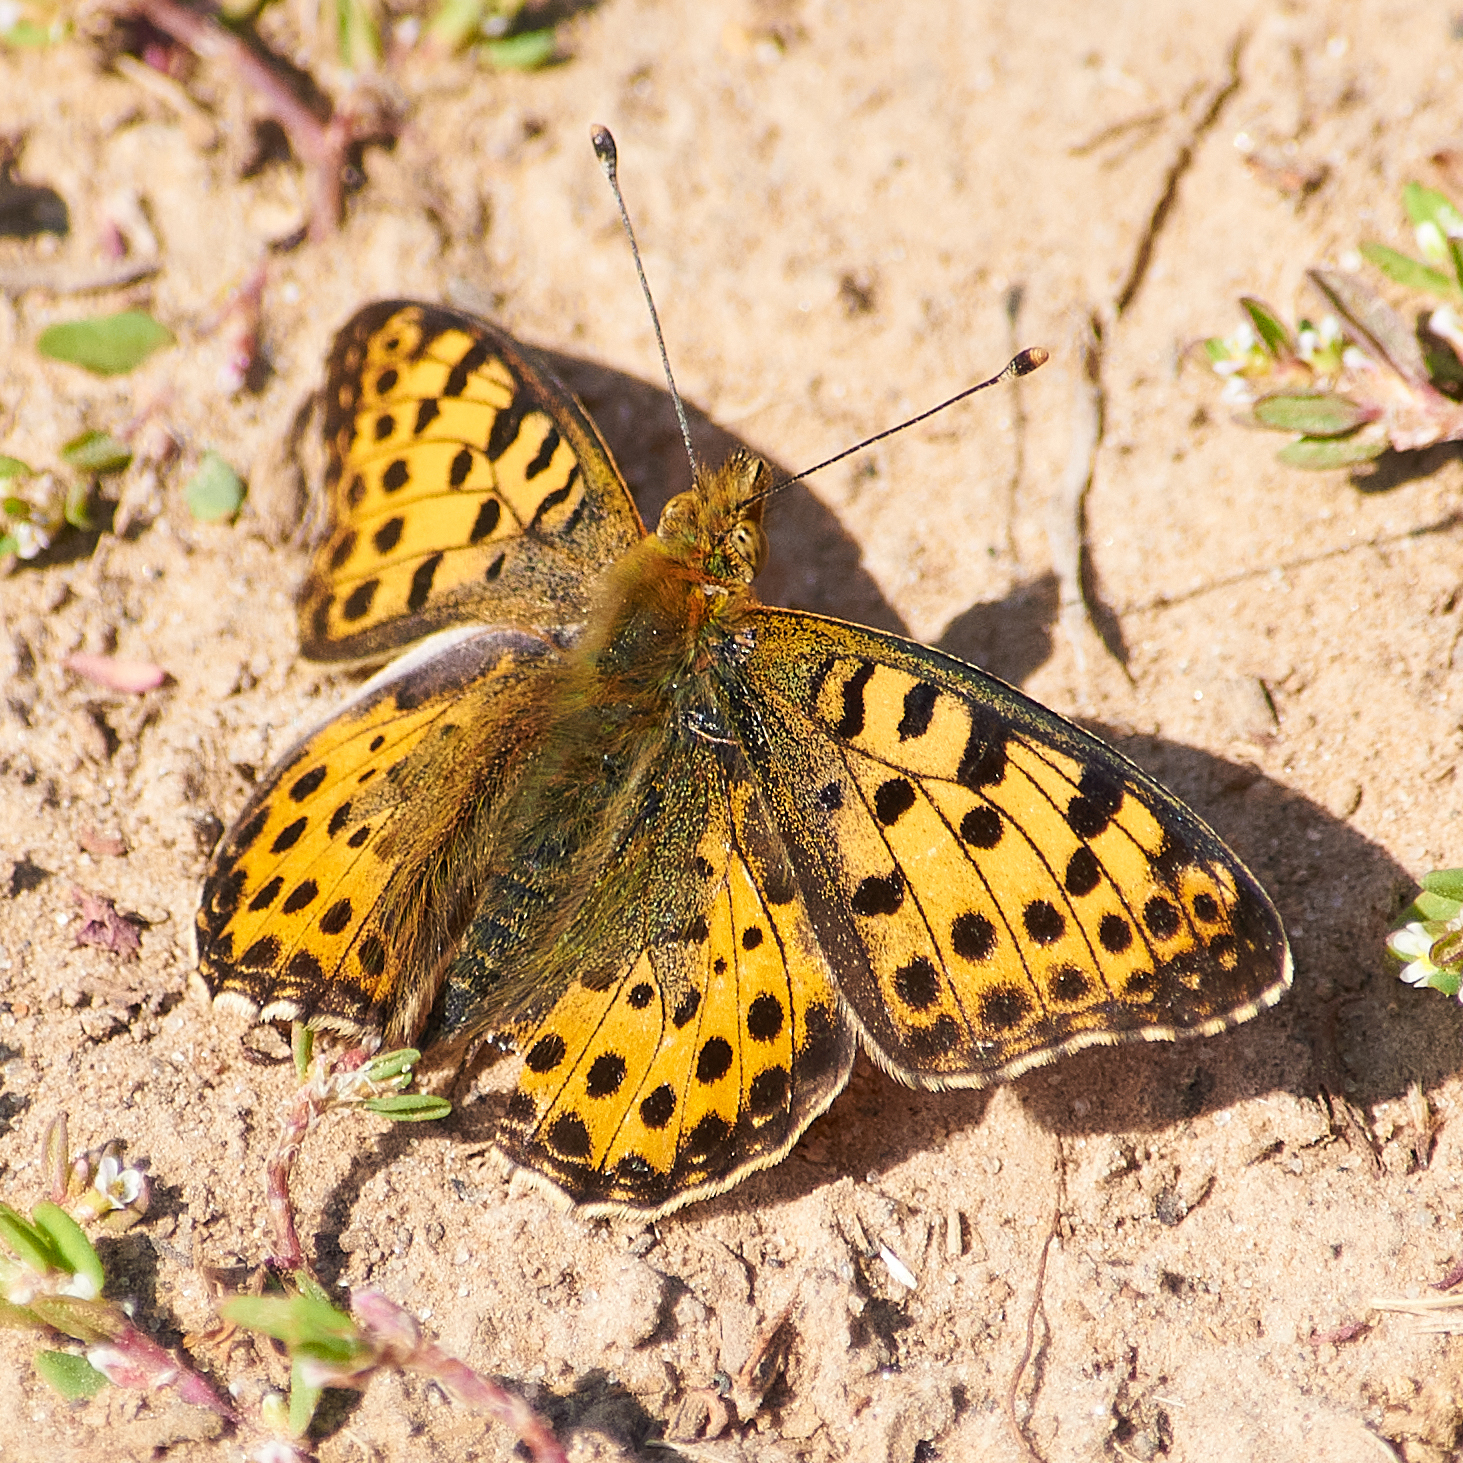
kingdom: Animalia
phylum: Arthropoda
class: Insecta
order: Lepidoptera
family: Nymphalidae
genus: Issoria
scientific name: Issoria lathonia
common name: Queen of spain fritillary
